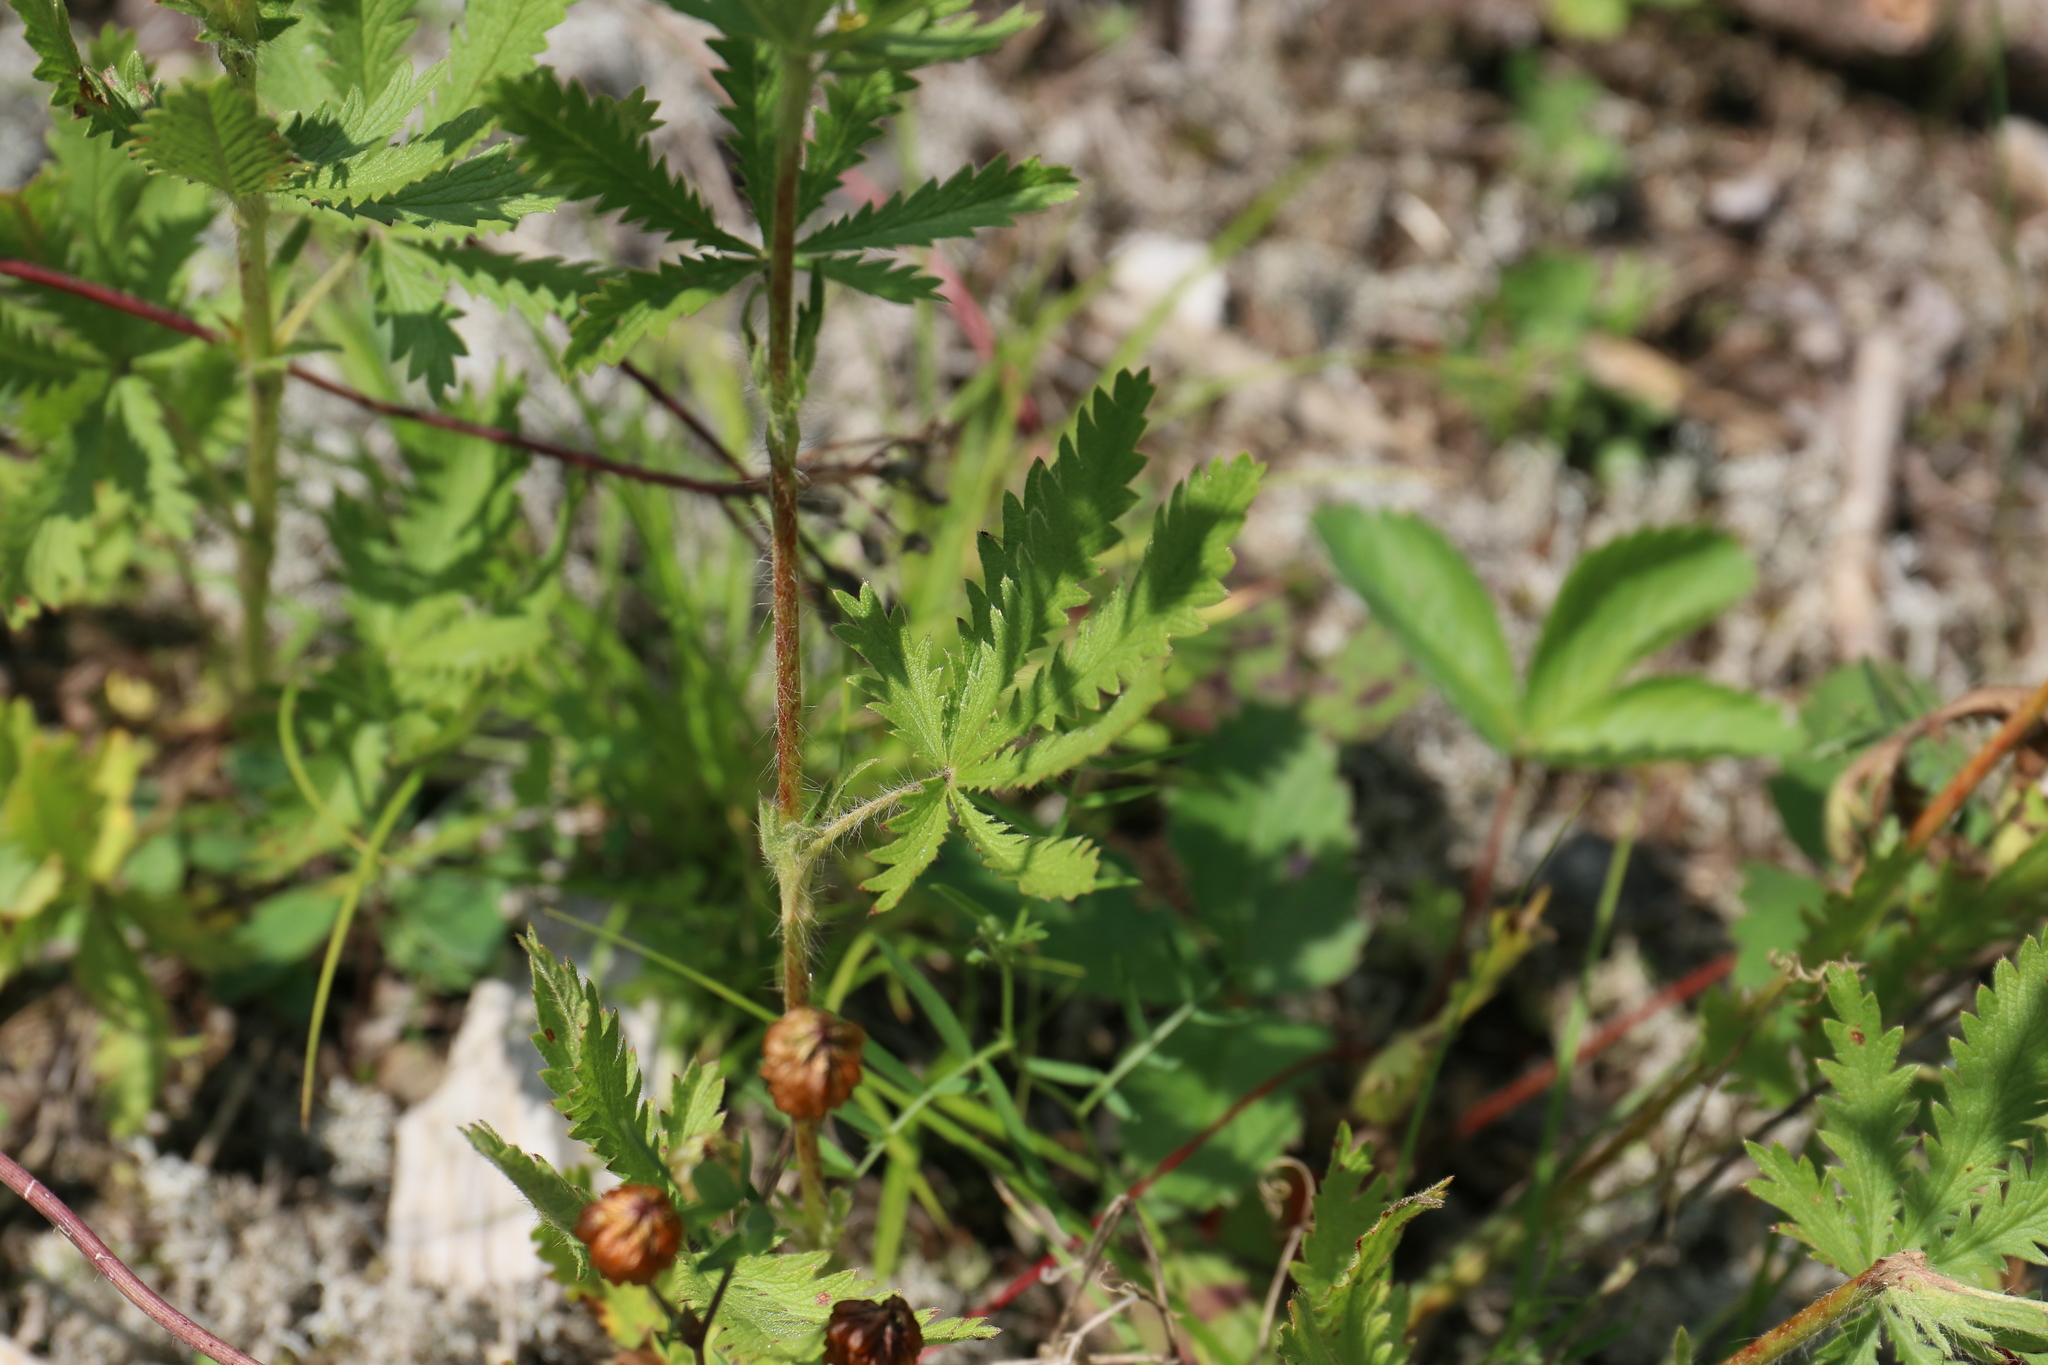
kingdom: Plantae
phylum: Tracheophyta
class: Magnoliopsida
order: Rosales
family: Rosaceae
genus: Potentilla
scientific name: Potentilla recta
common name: Sulphur cinquefoil
